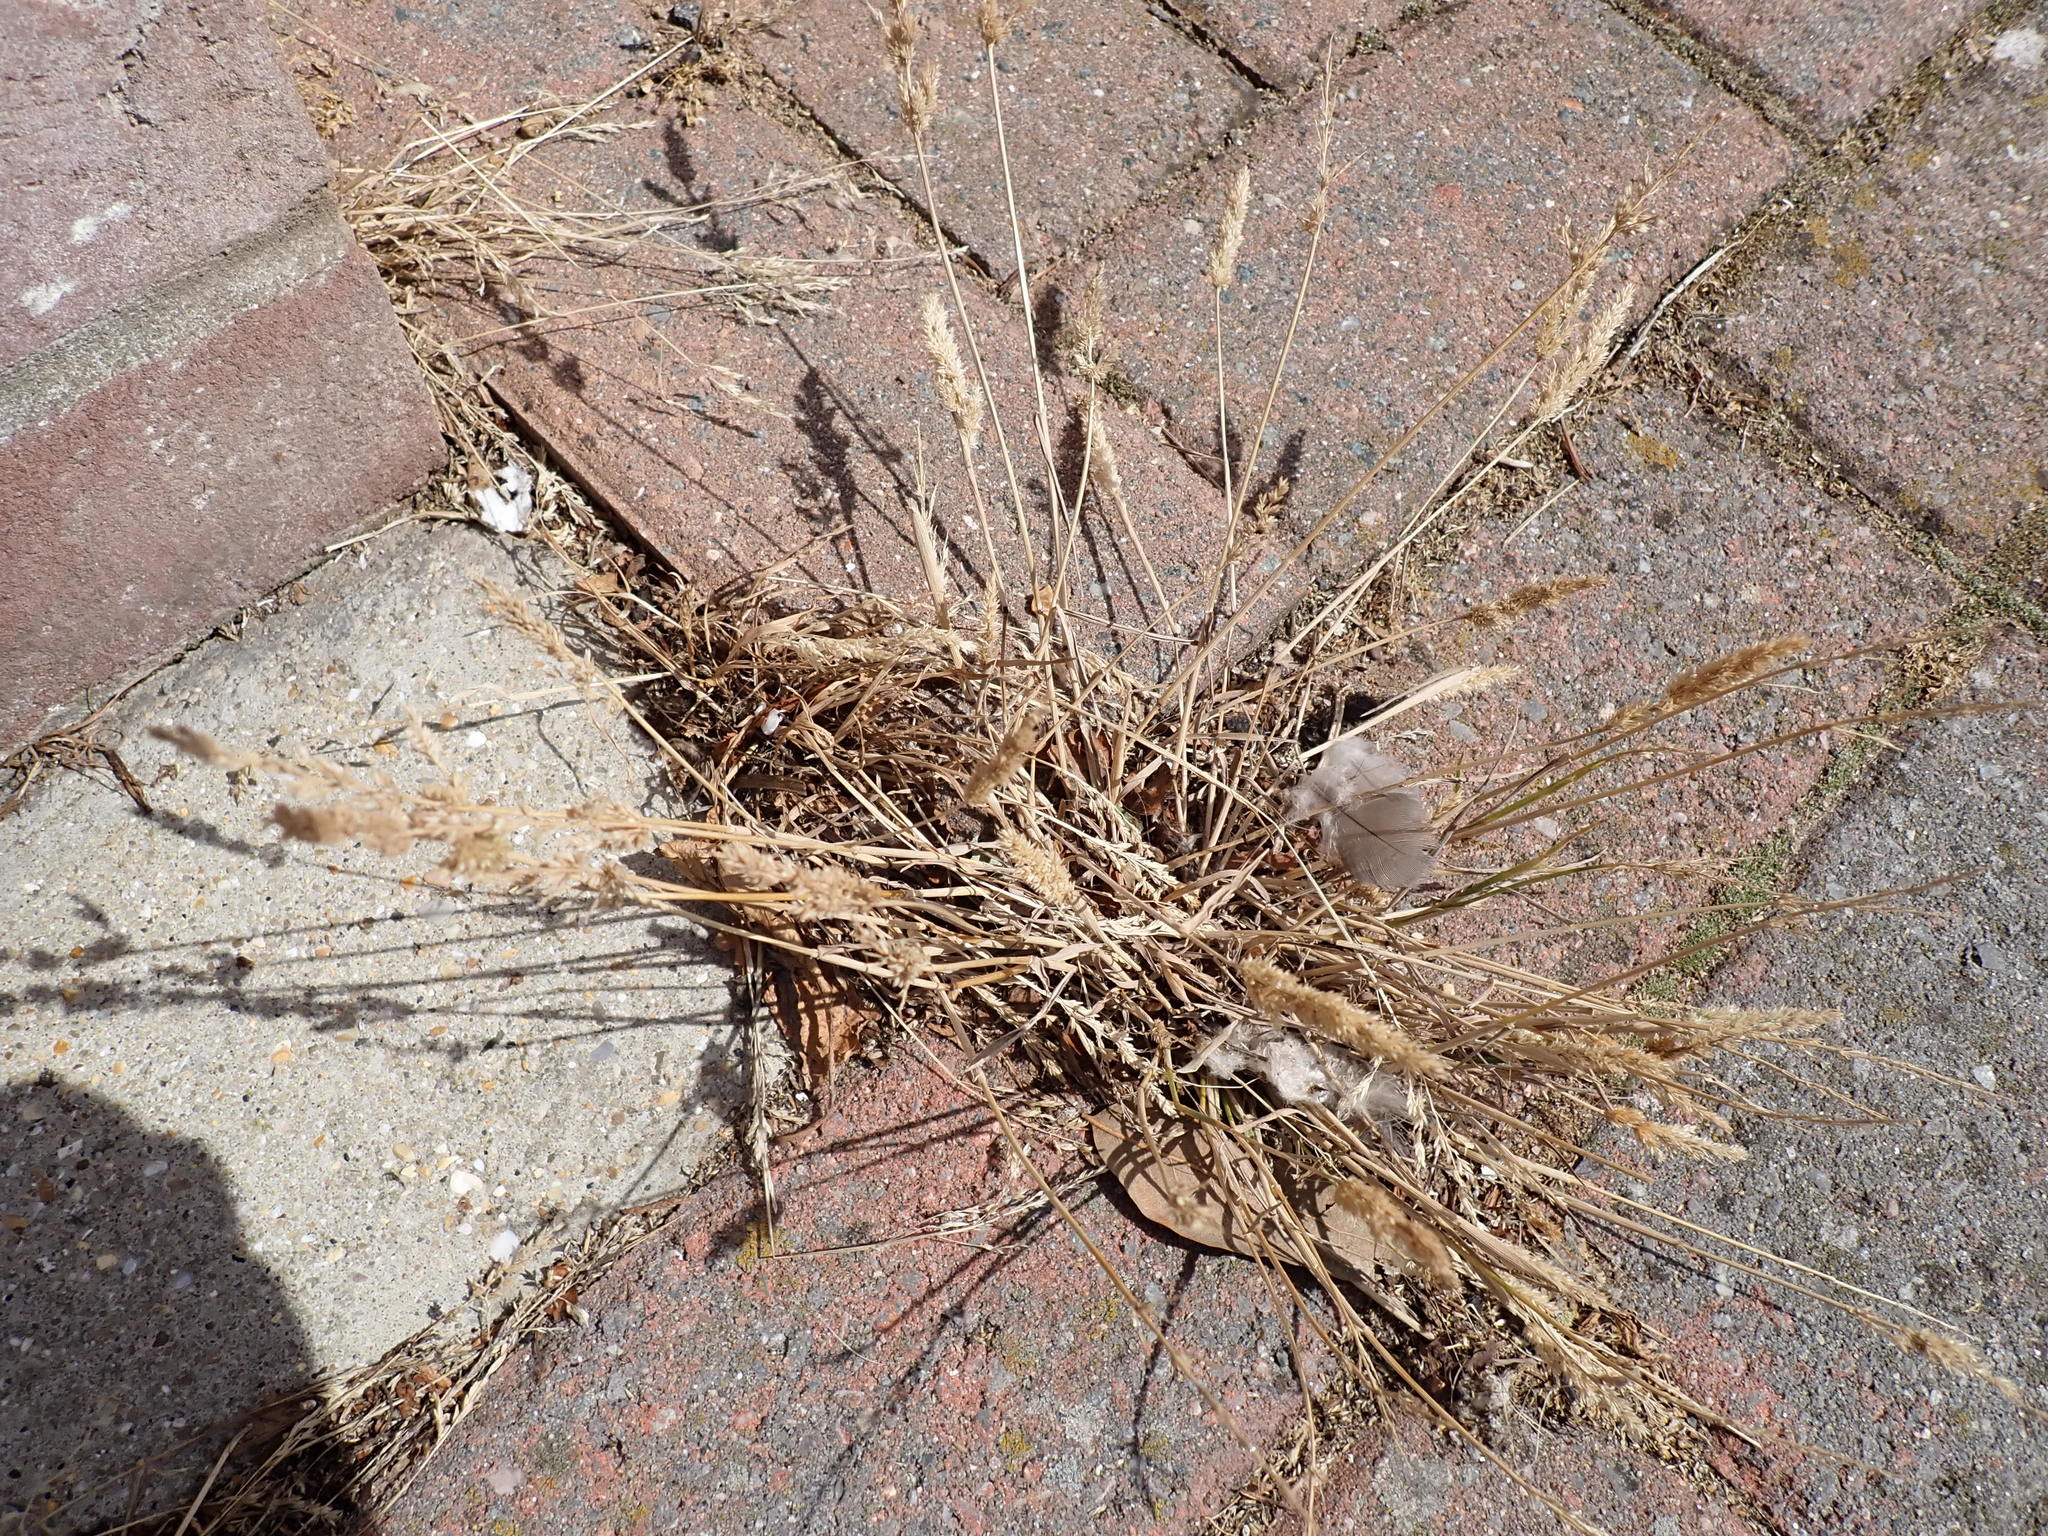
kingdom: Plantae
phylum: Tracheophyta
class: Liliopsida
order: Poales
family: Poaceae
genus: Polypogon
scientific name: Polypogon viridis
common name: Water bent
